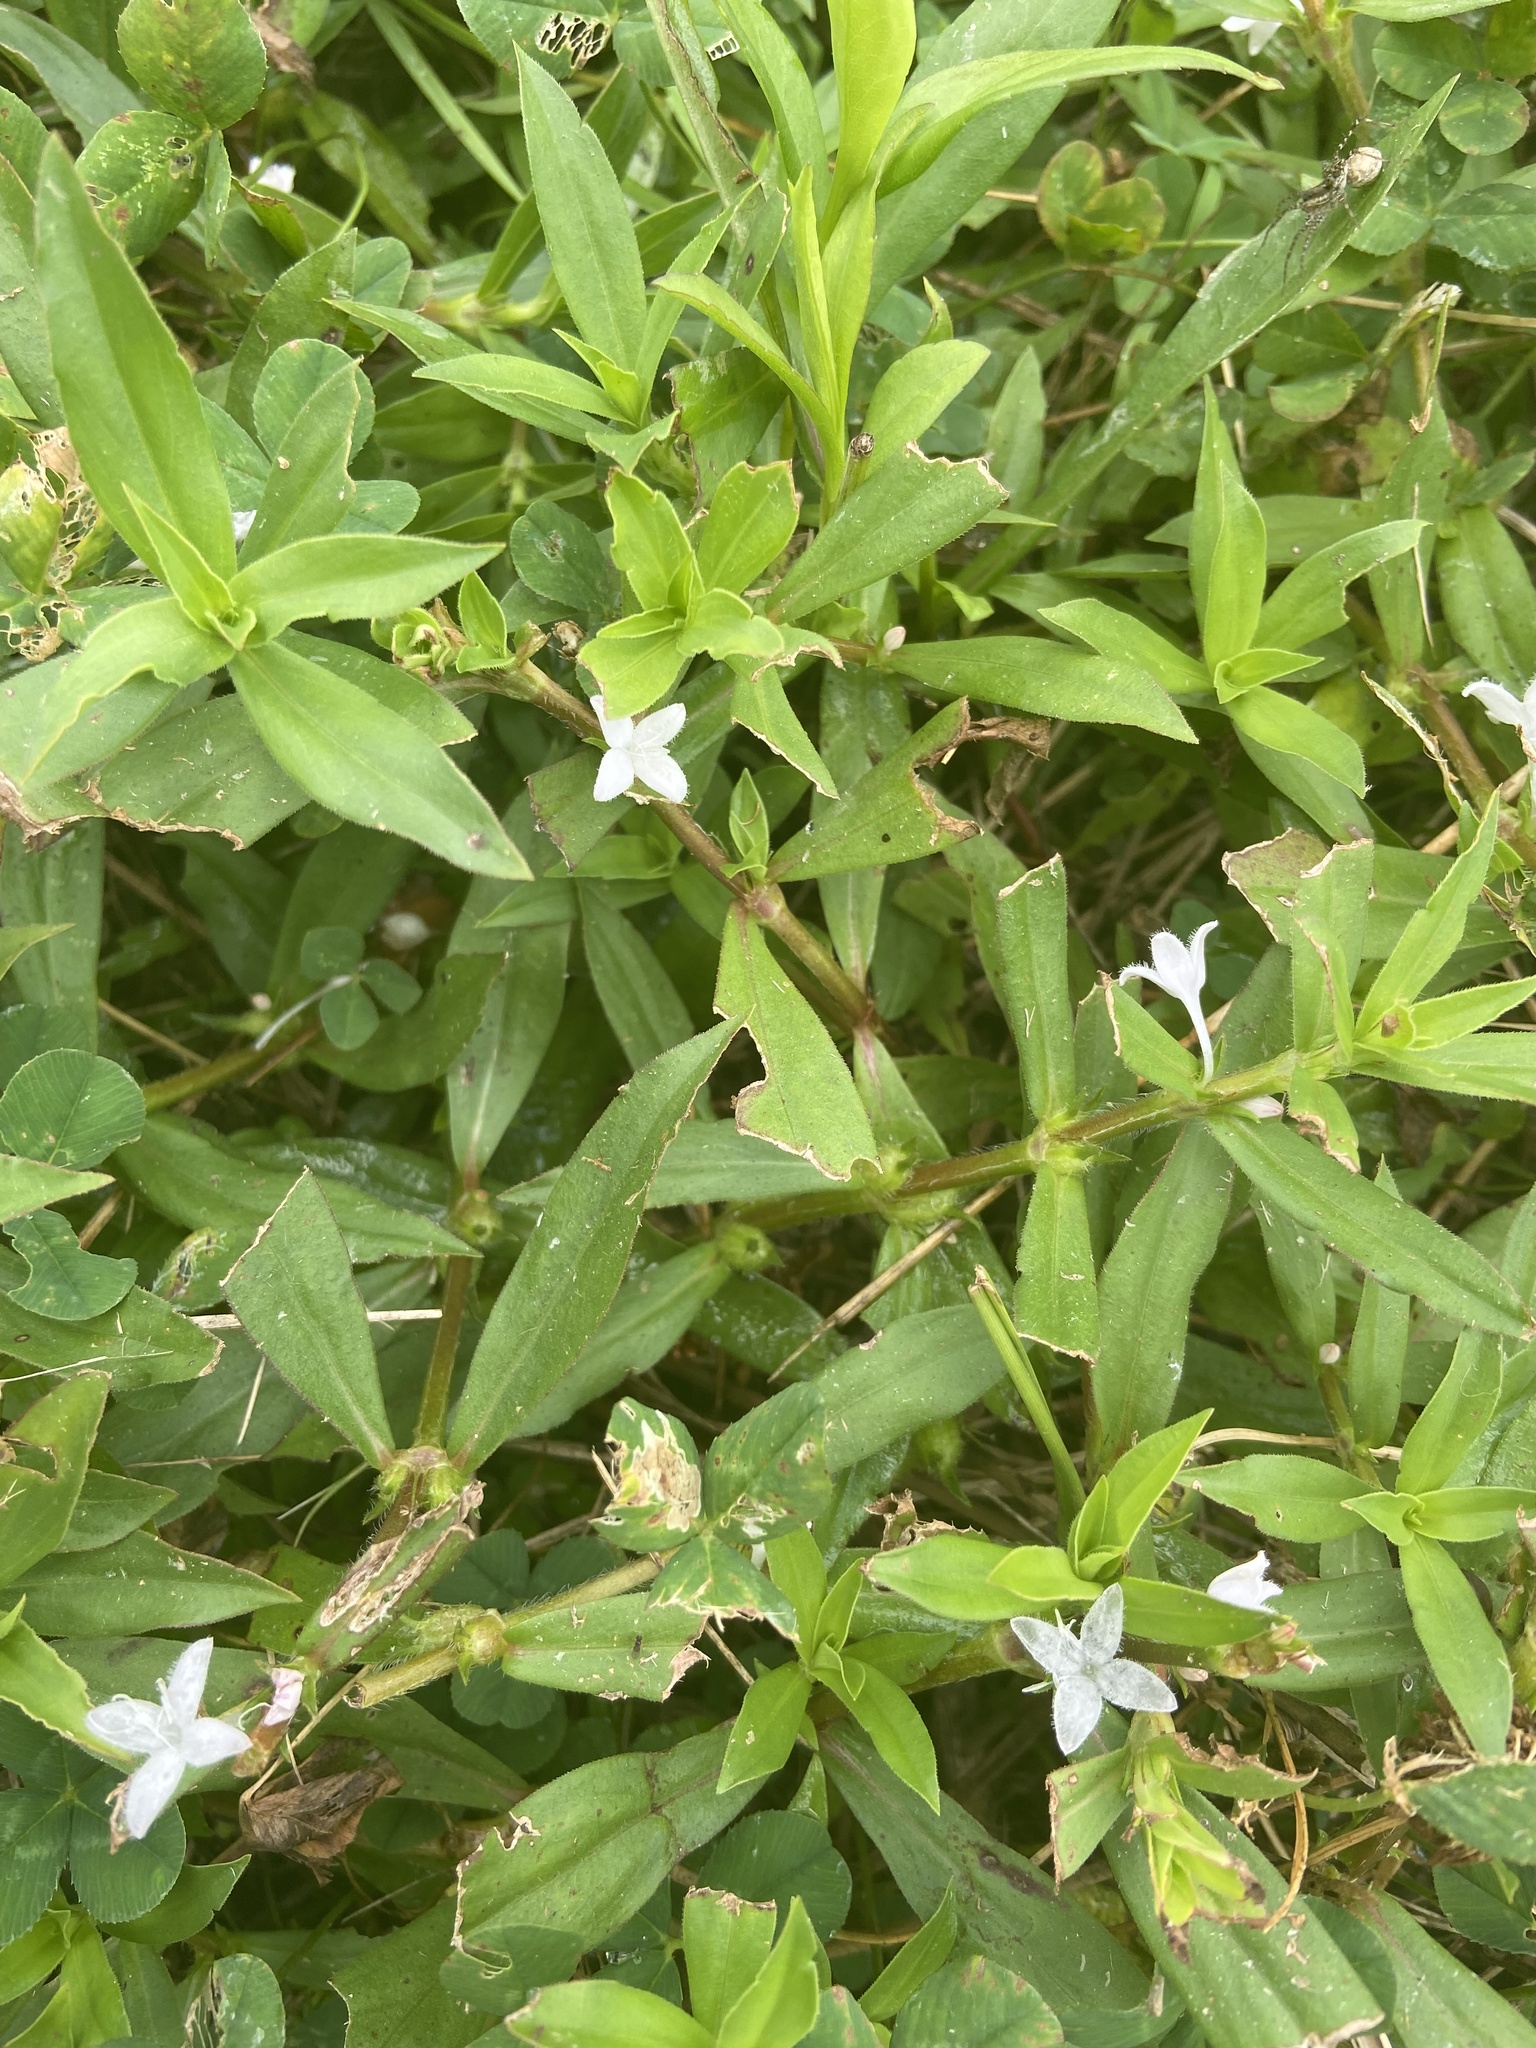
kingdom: Plantae
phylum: Tracheophyta
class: Magnoliopsida
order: Gentianales
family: Rubiaceae
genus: Diodia
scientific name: Diodia virginiana
